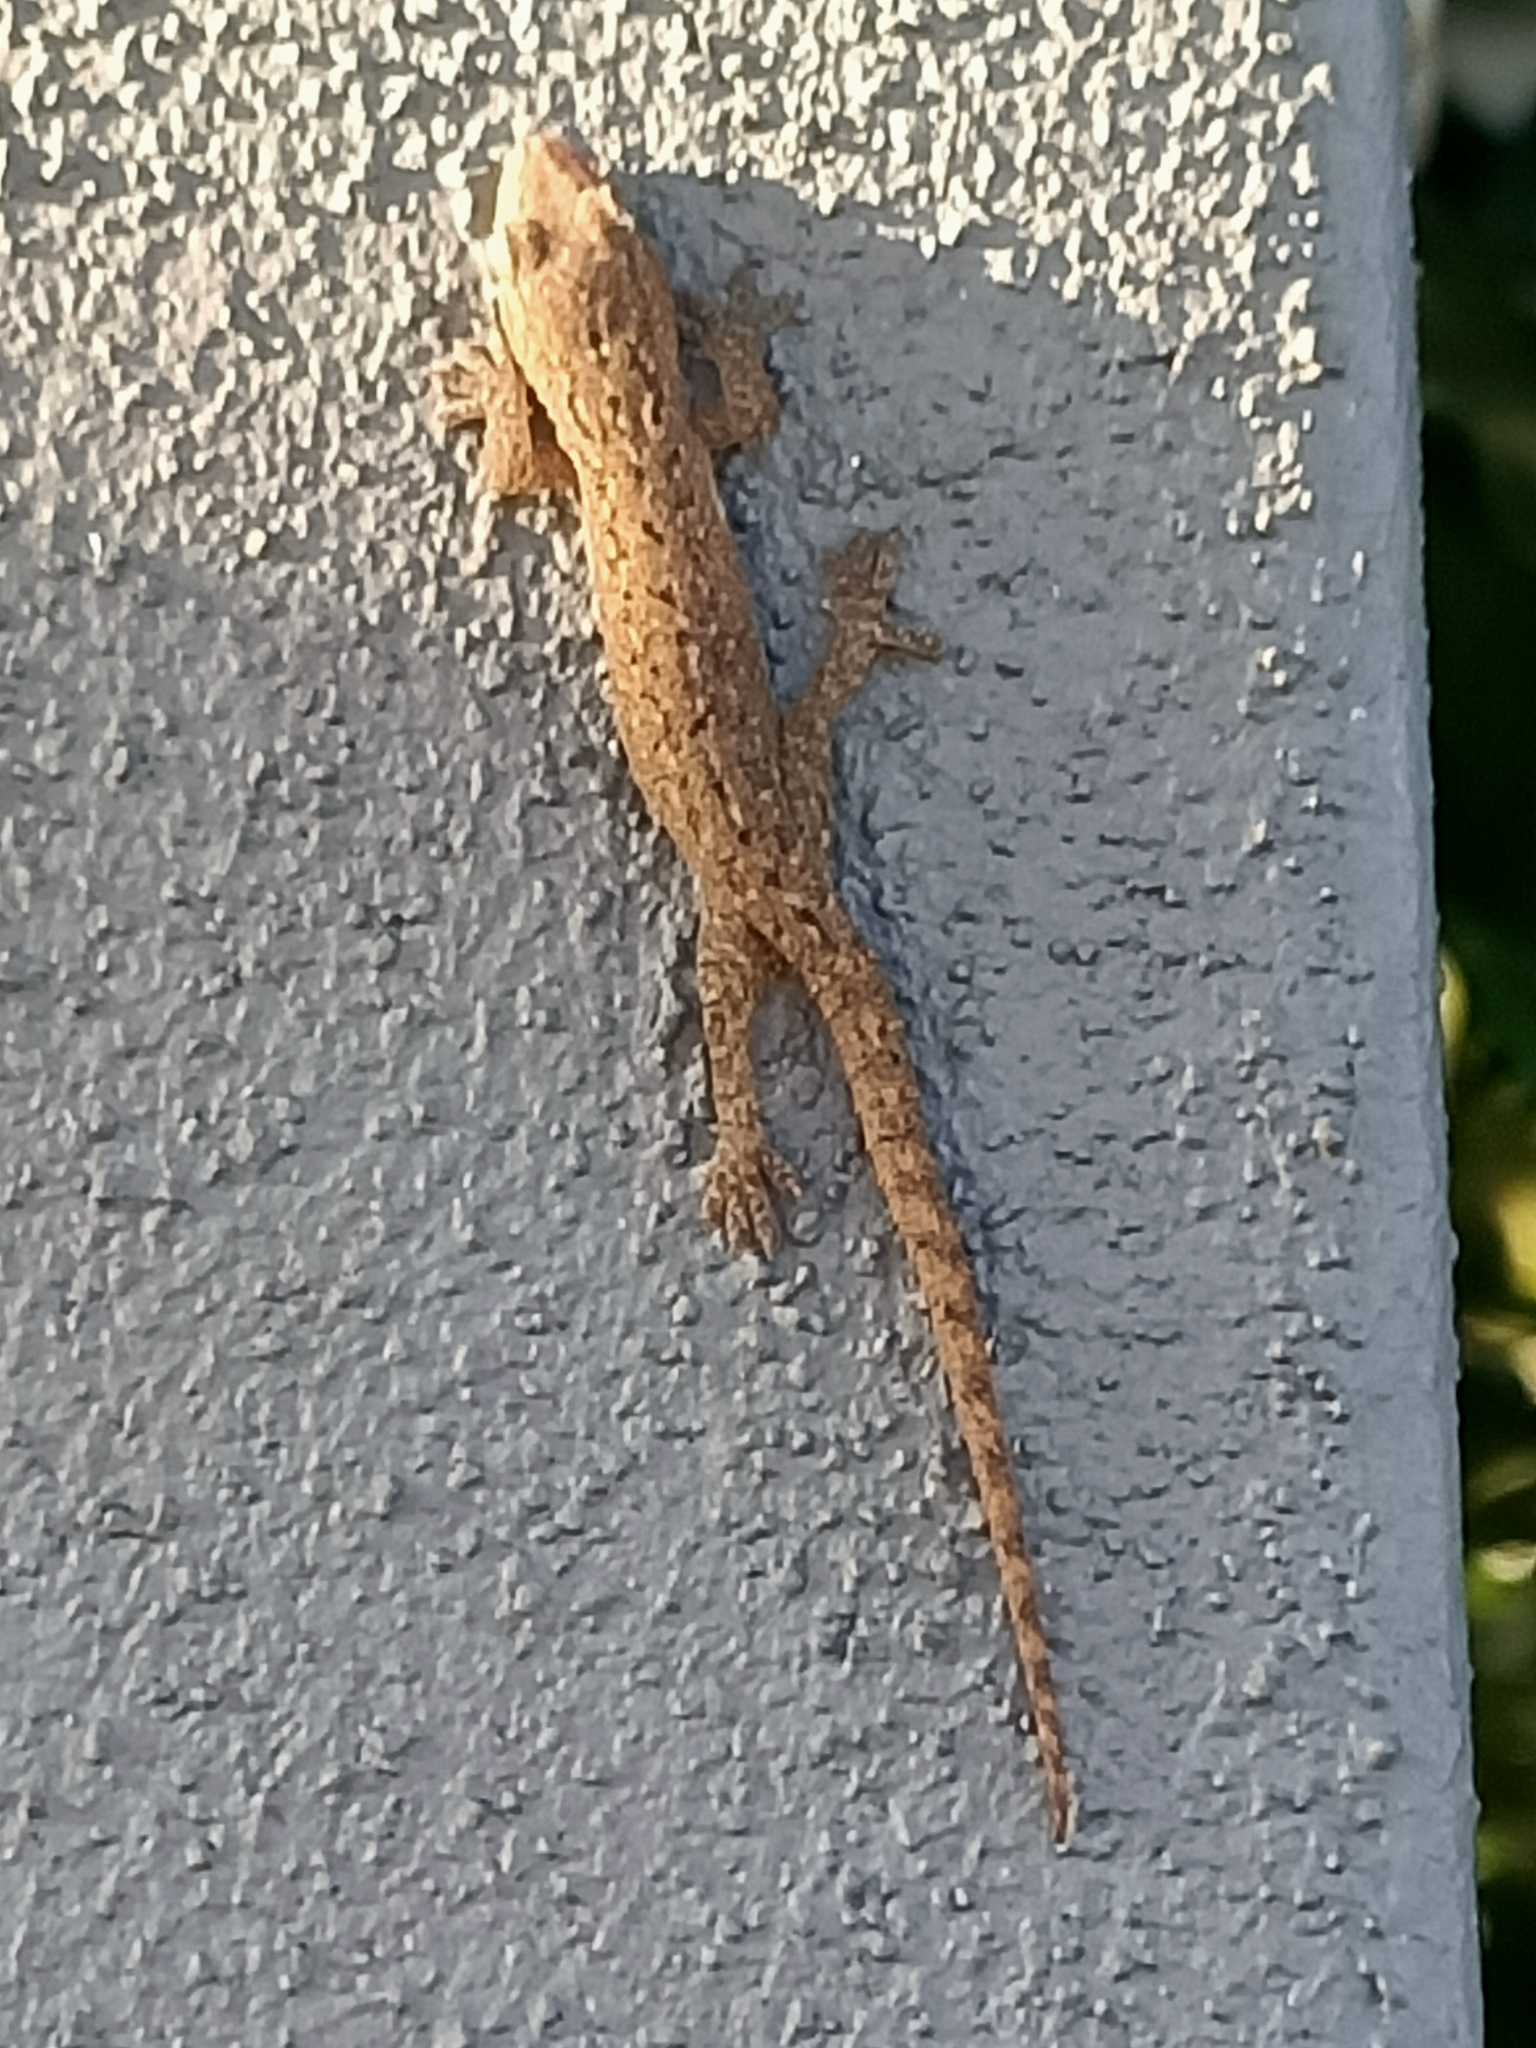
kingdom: Animalia
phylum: Chordata
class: Squamata
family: Gekkonidae
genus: Hemidactylus
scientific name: Hemidactylus frenatus
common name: Common house gecko
